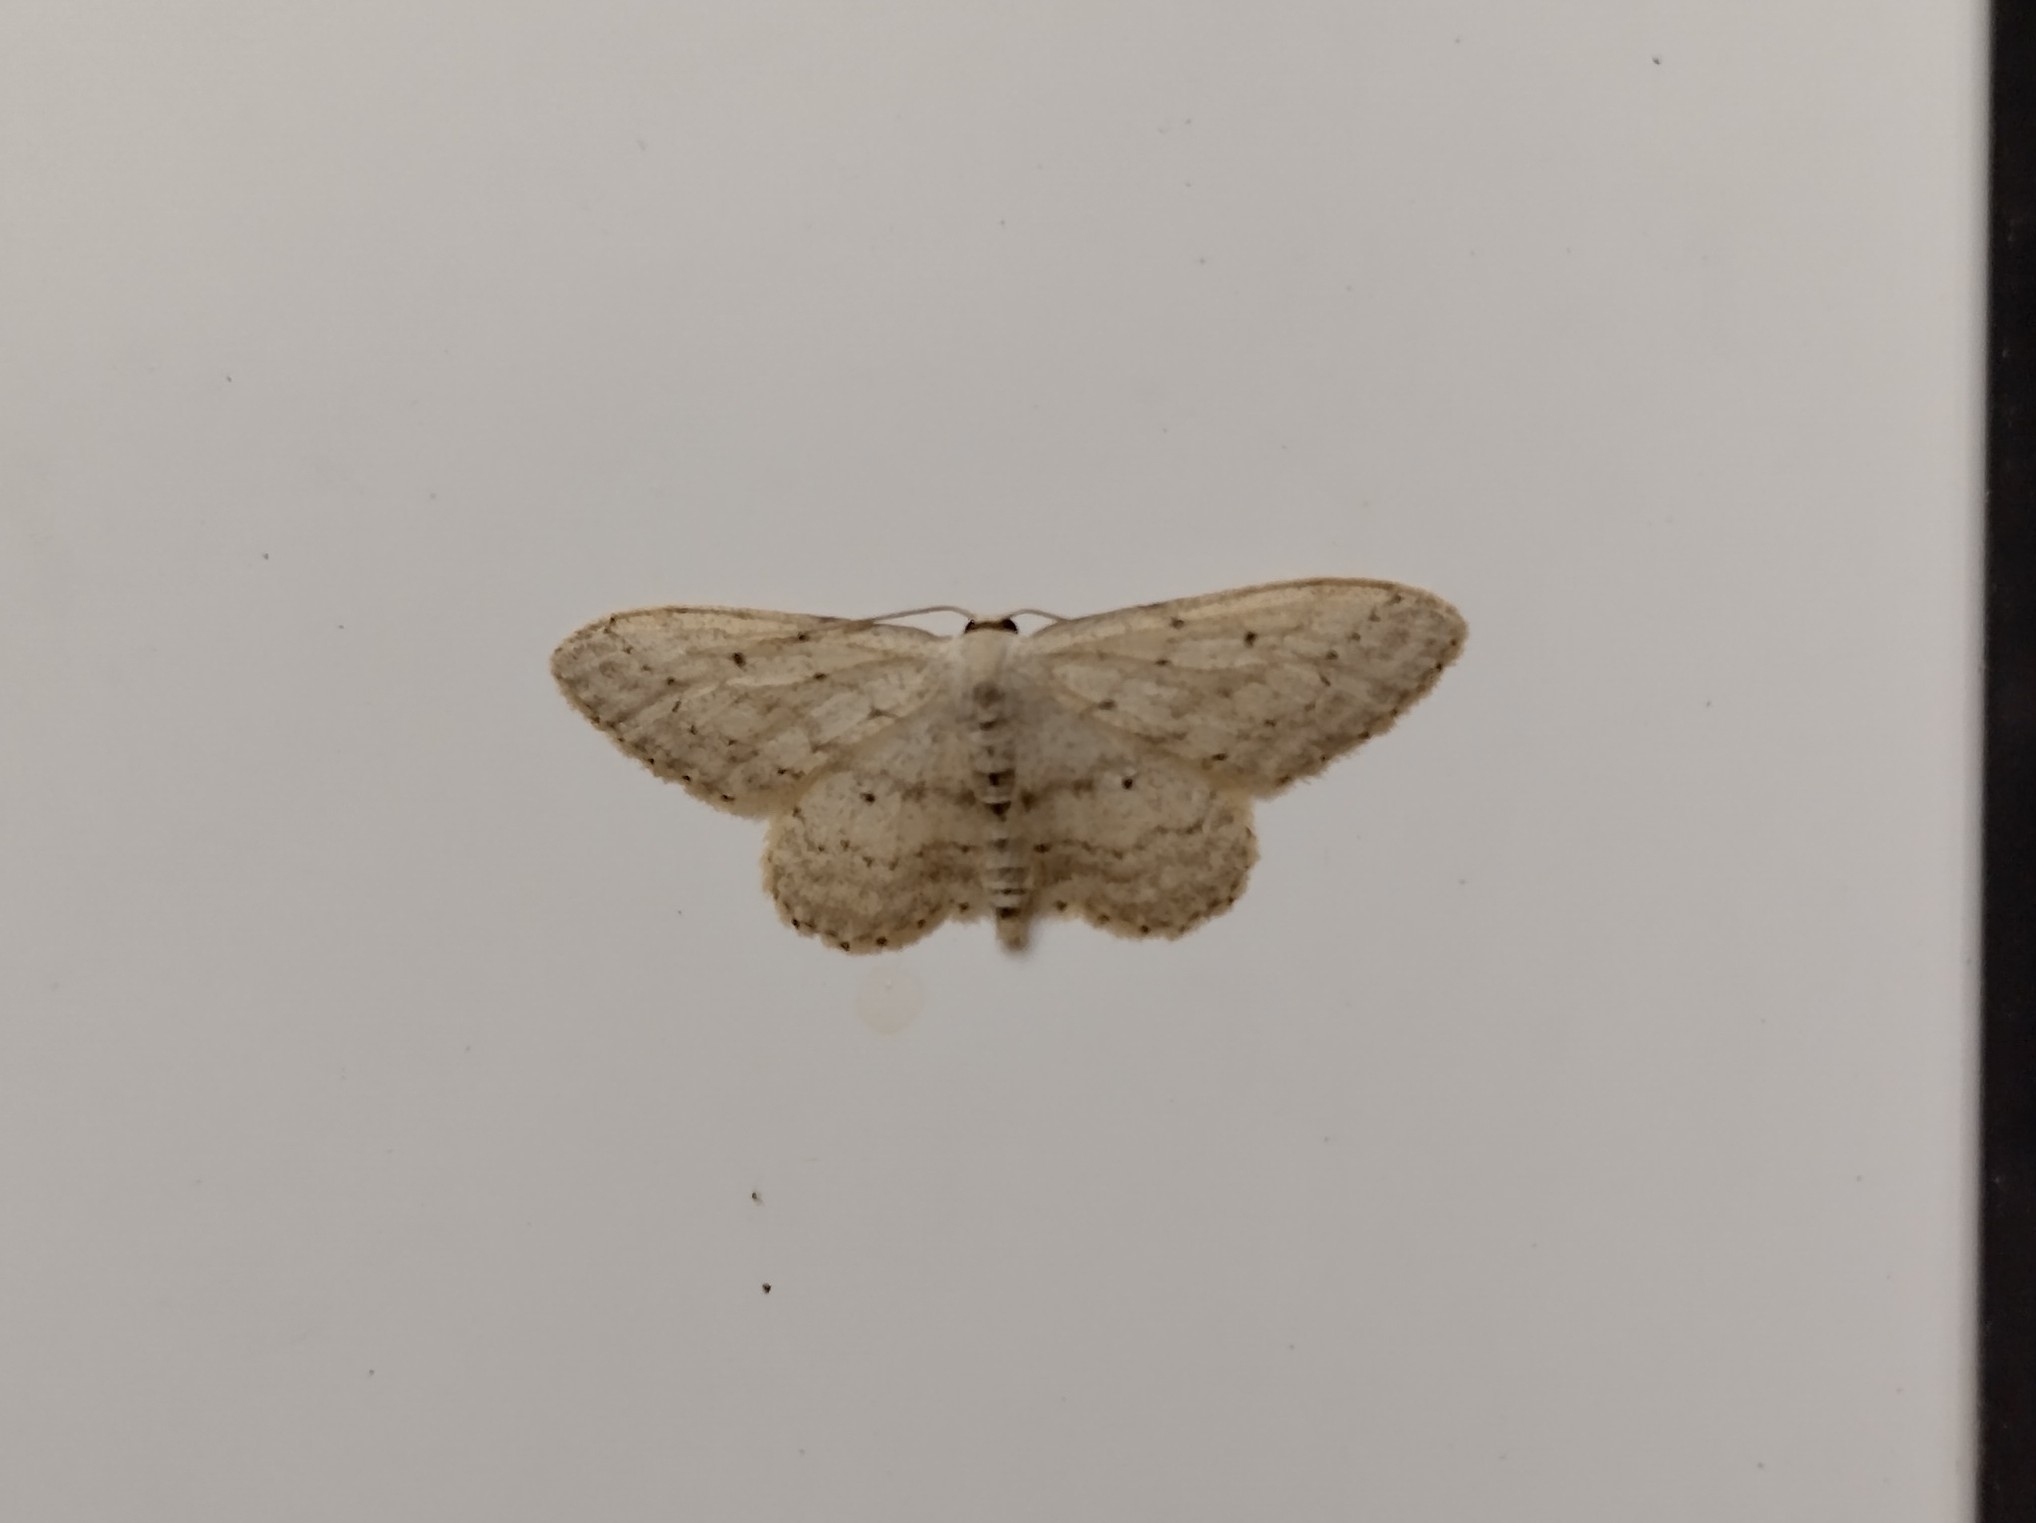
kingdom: Animalia
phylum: Arthropoda
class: Insecta
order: Lepidoptera
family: Geometridae
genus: Idaea
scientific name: Idaea seriata
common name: Small dusty wave
